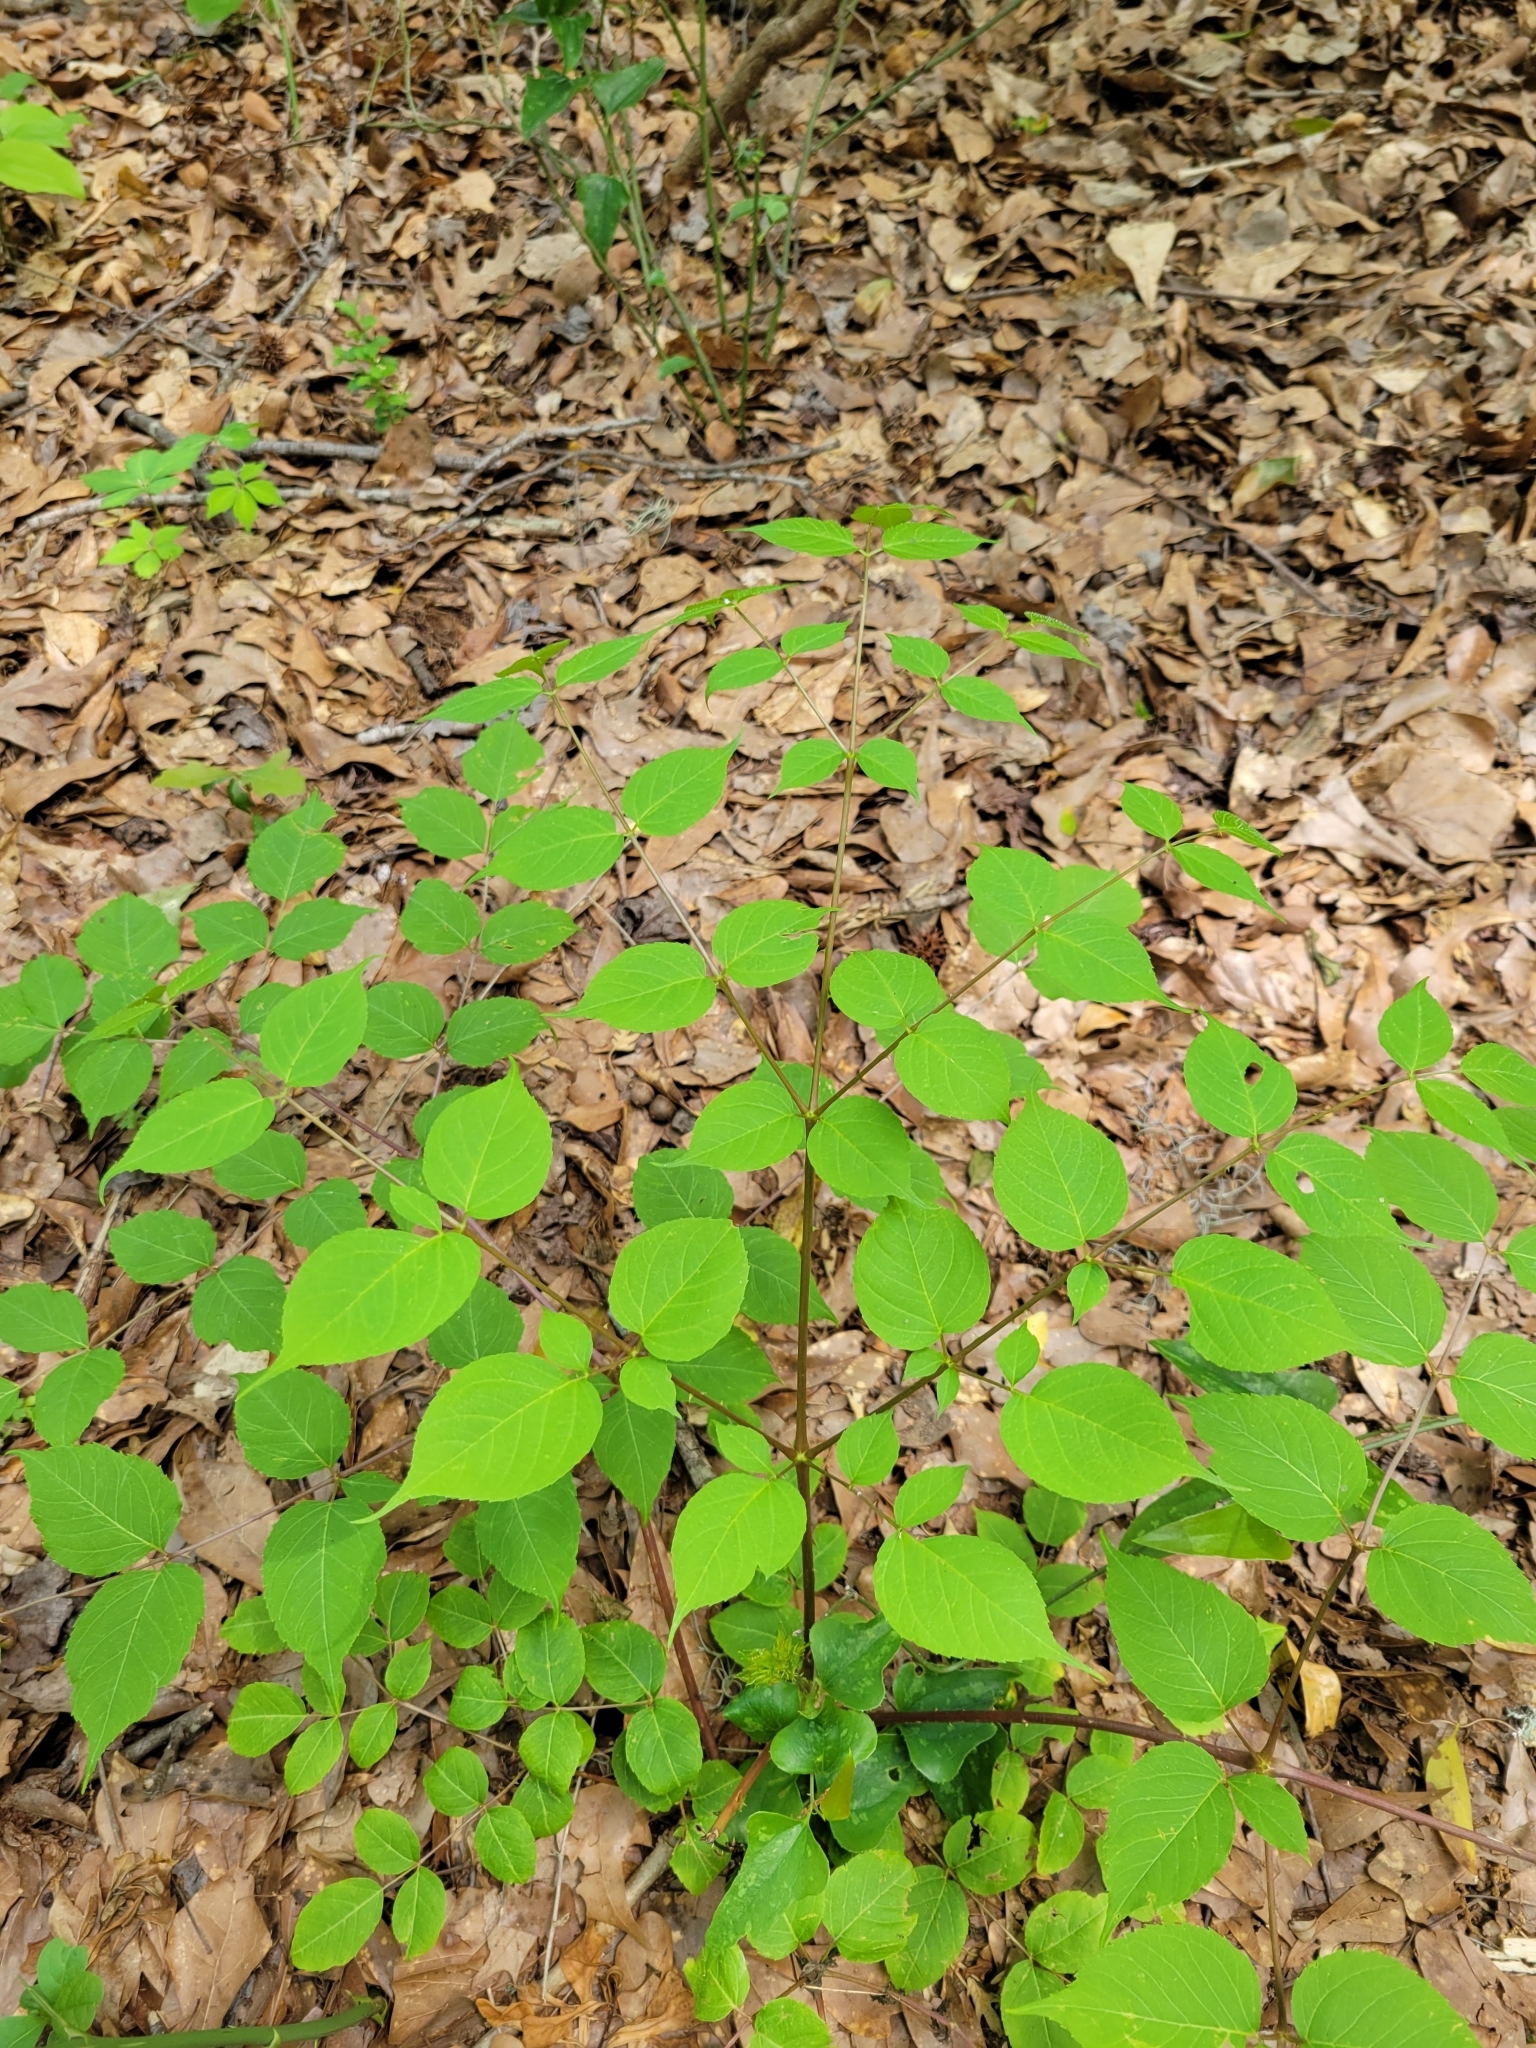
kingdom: Plantae
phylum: Tracheophyta
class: Magnoliopsida
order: Apiales
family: Araliaceae
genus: Aralia
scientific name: Aralia spinosa
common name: Hercules'-club
